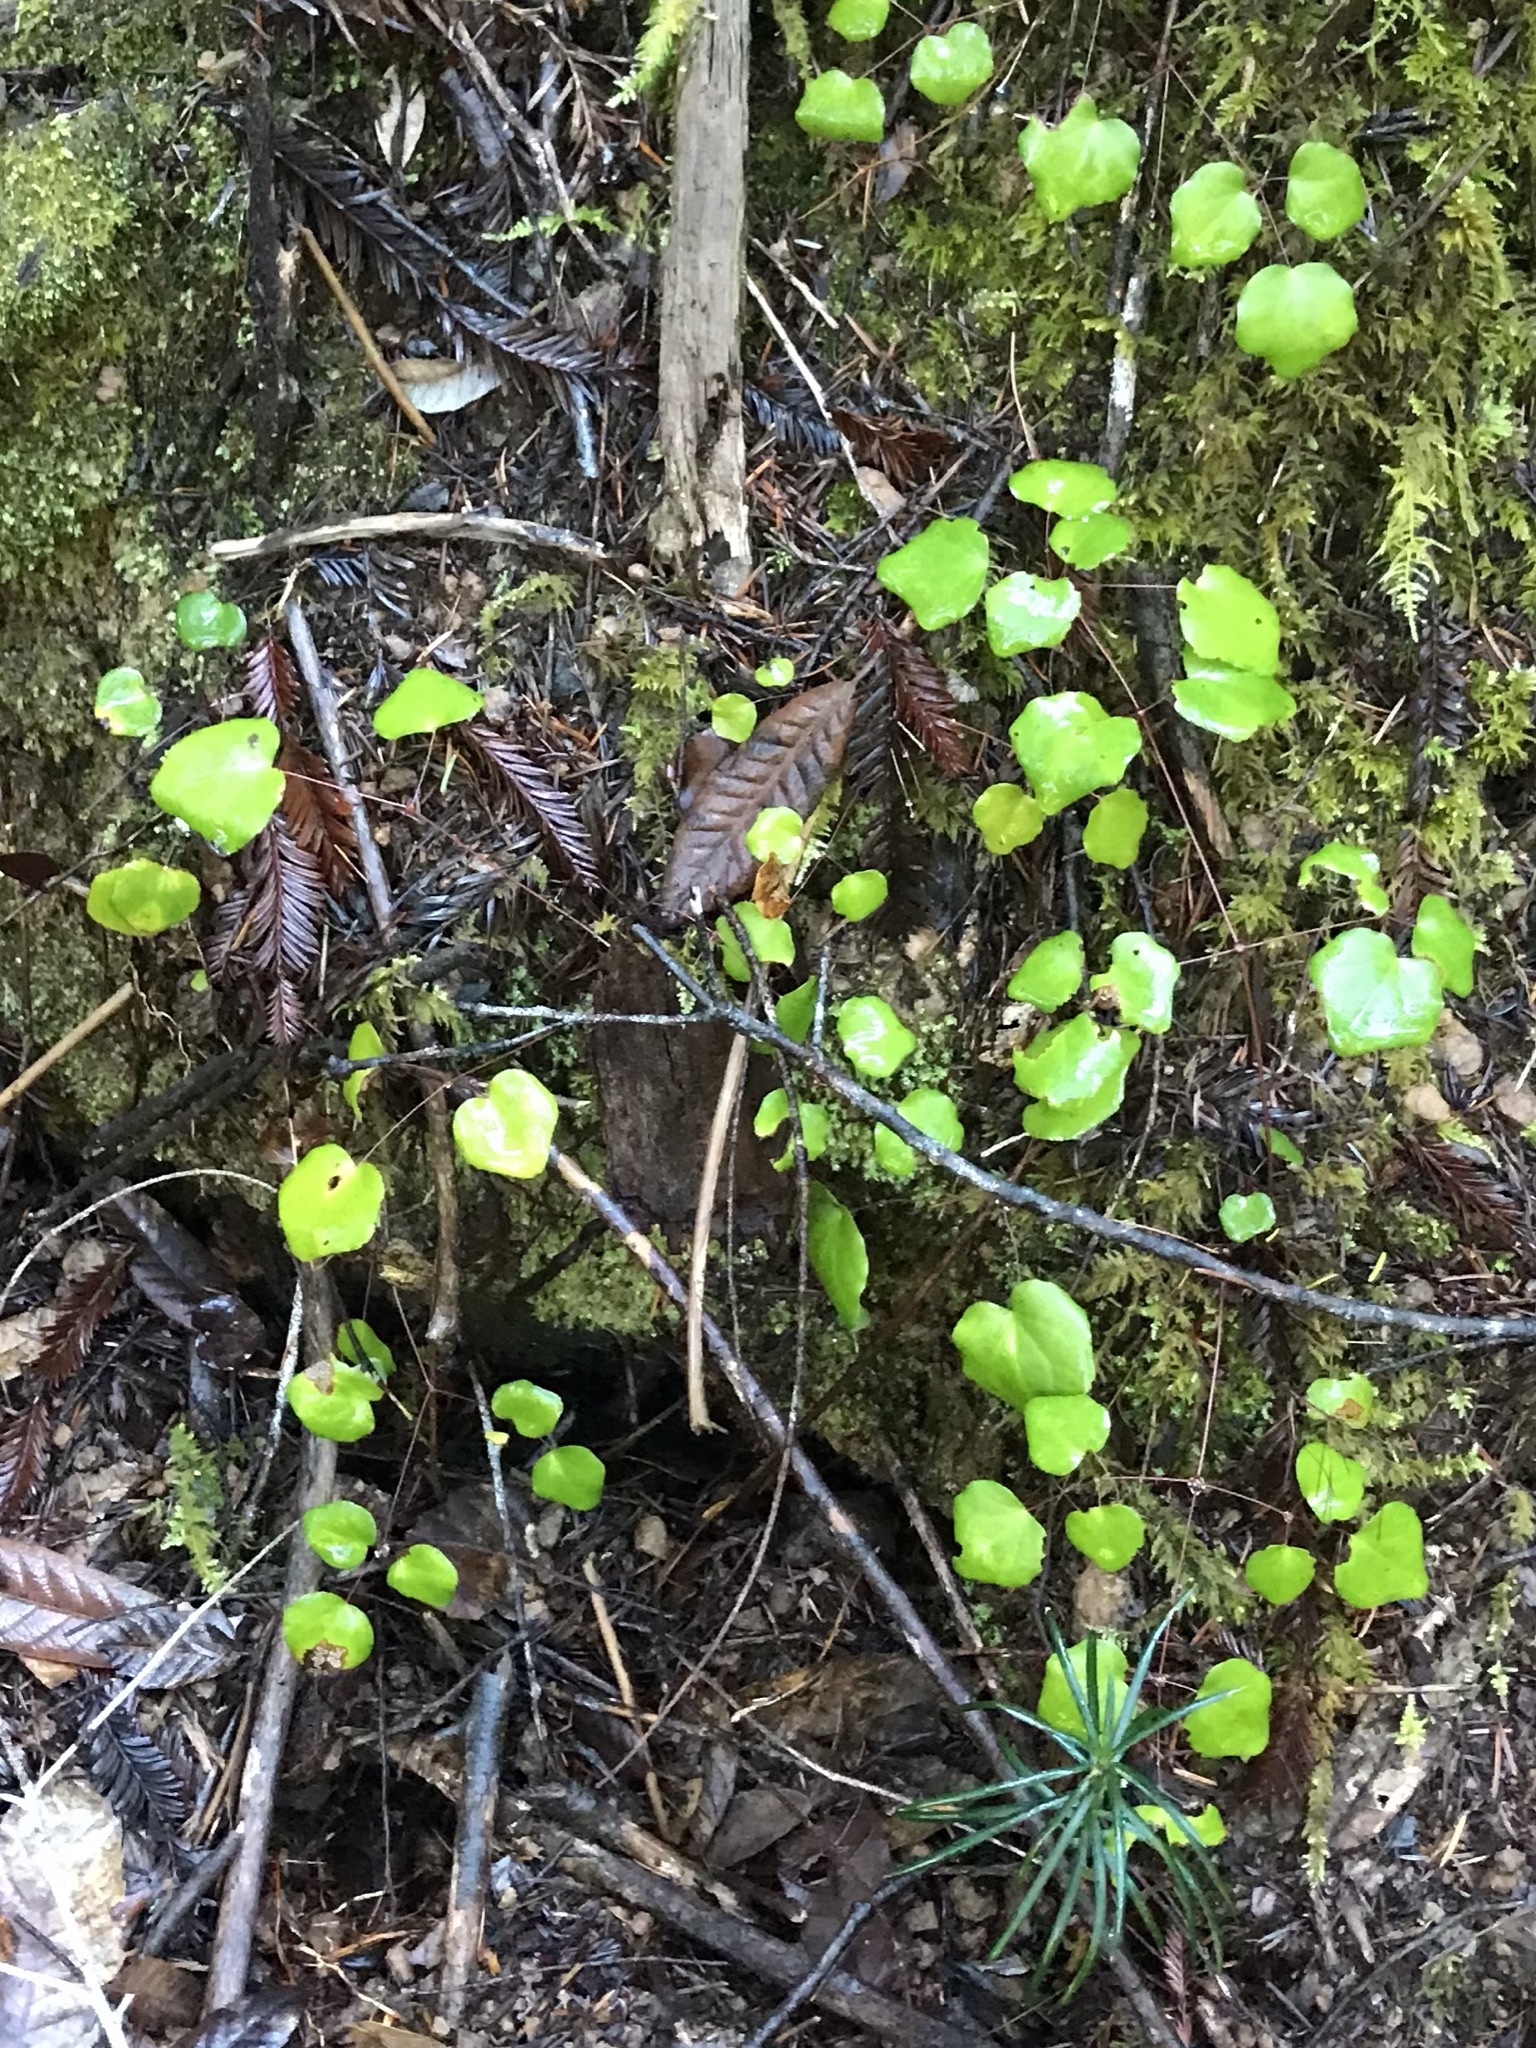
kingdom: Plantae
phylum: Tracheophyta
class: Magnoliopsida
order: Ranunculales
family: Berberidaceae
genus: Vancouveria
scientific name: Vancouveria planipetala
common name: Redwood-ivy
